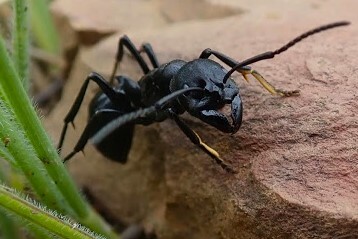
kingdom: Animalia
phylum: Arthropoda
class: Insecta
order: Hymenoptera
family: Formicidae
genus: Streblognathus
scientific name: Streblognathus peetersi
